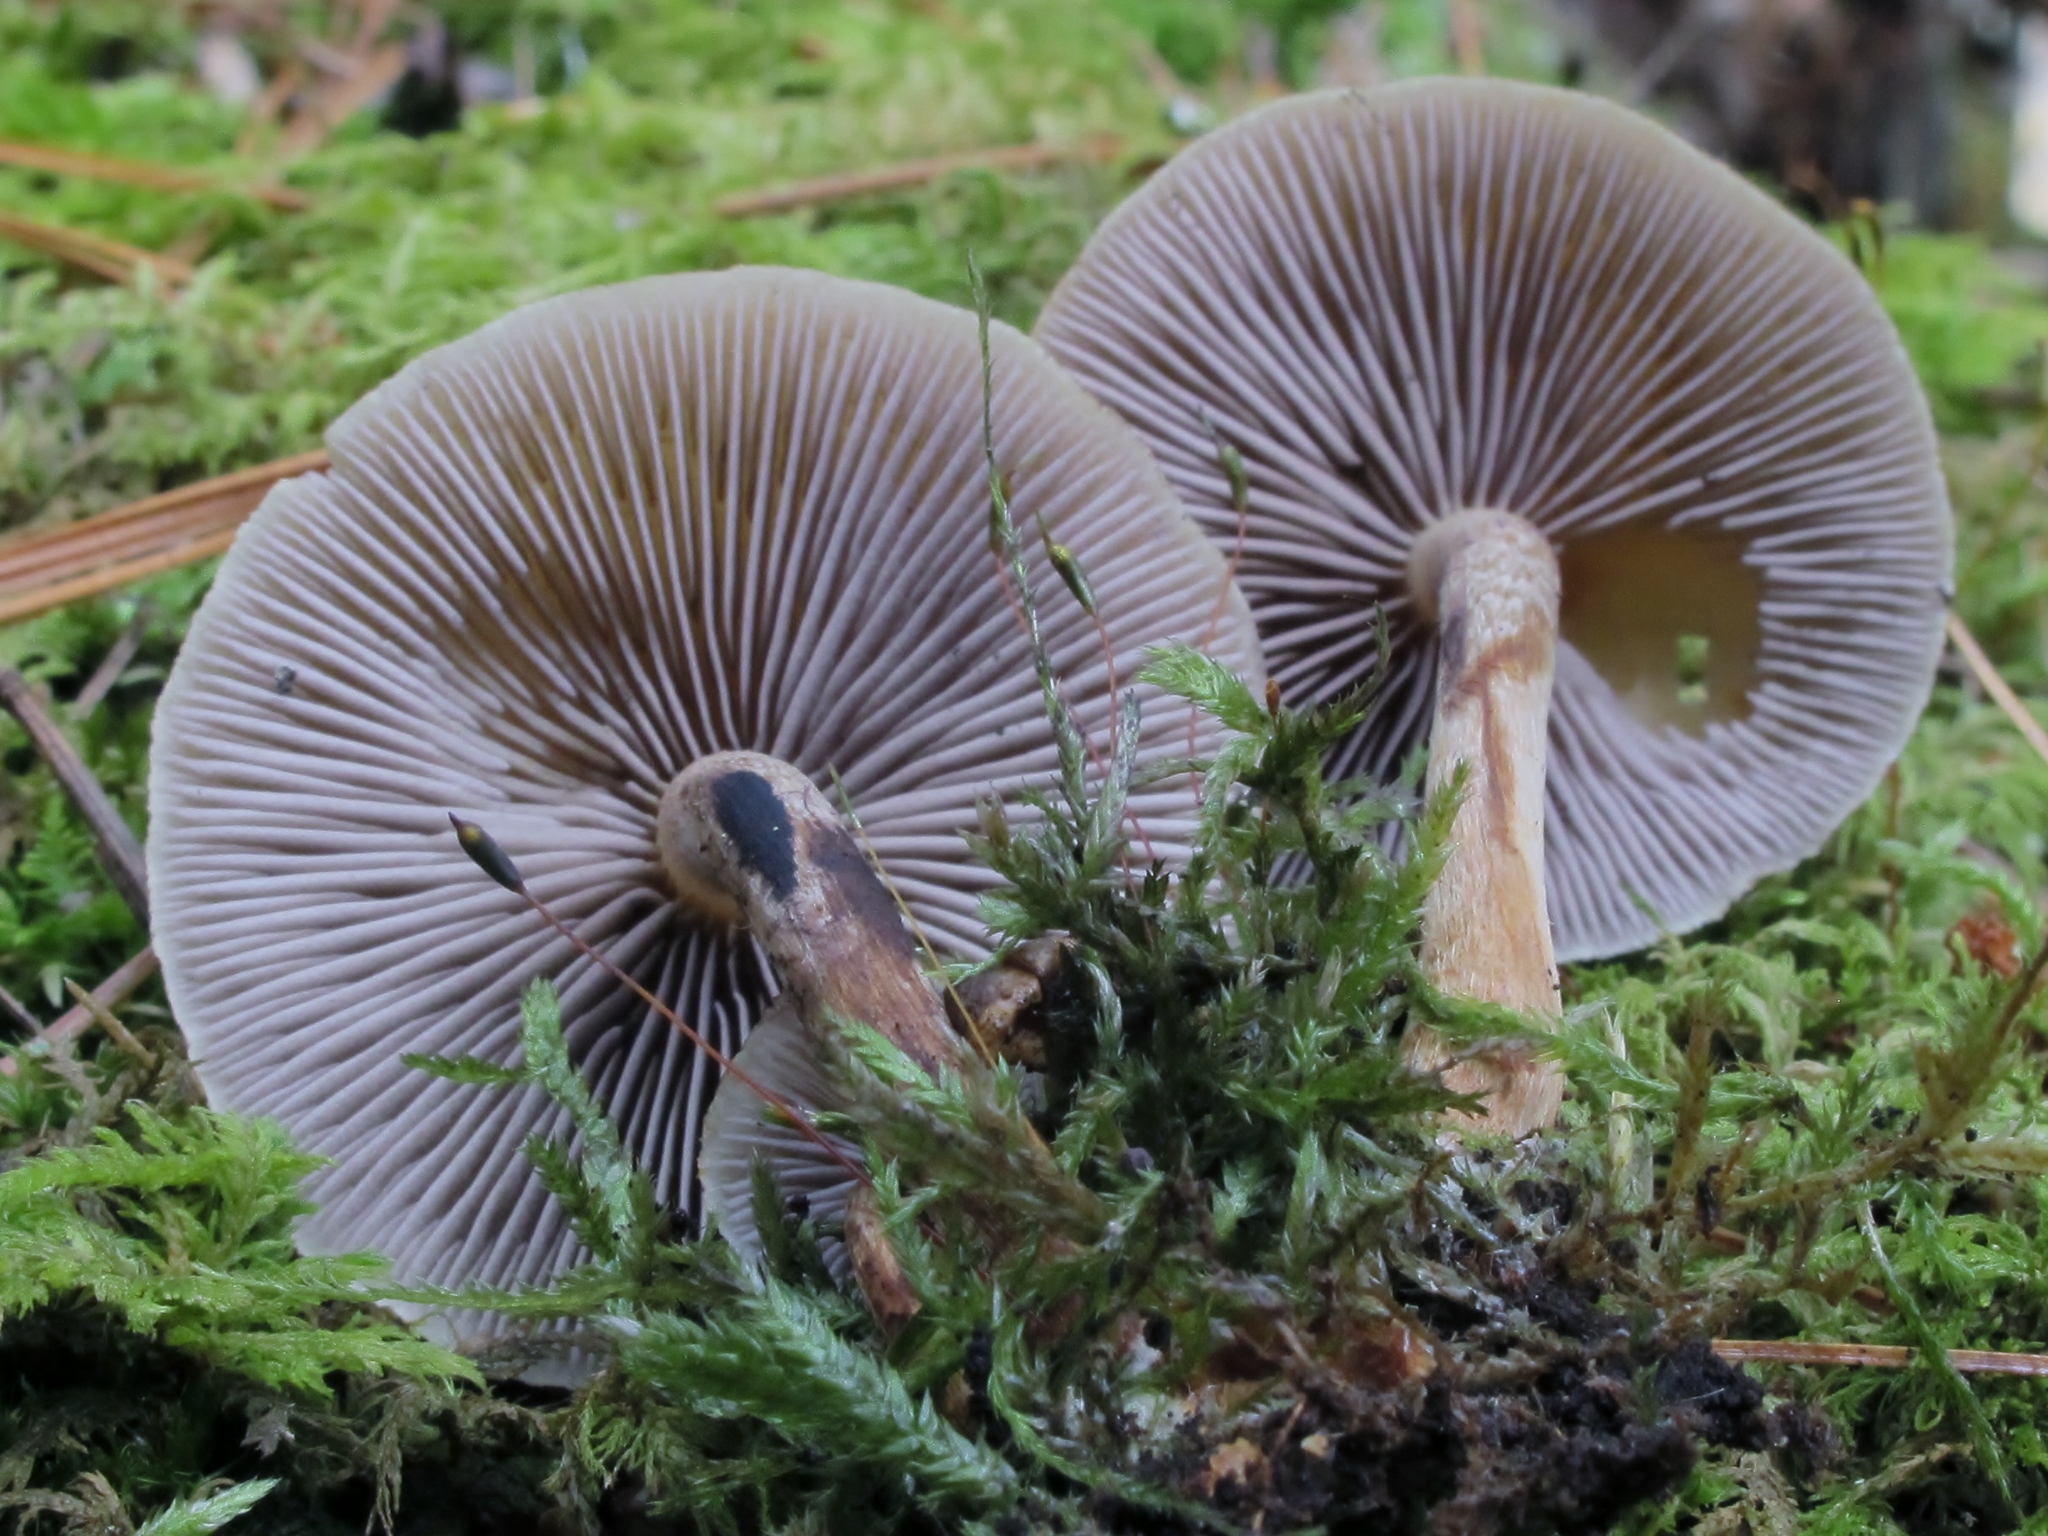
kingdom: Fungi
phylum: Basidiomycota
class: Agaricomycetes
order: Agaricales
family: Strophariaceae
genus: Hypholoma
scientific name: Hypholoma capnoides
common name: Conifer tuft
